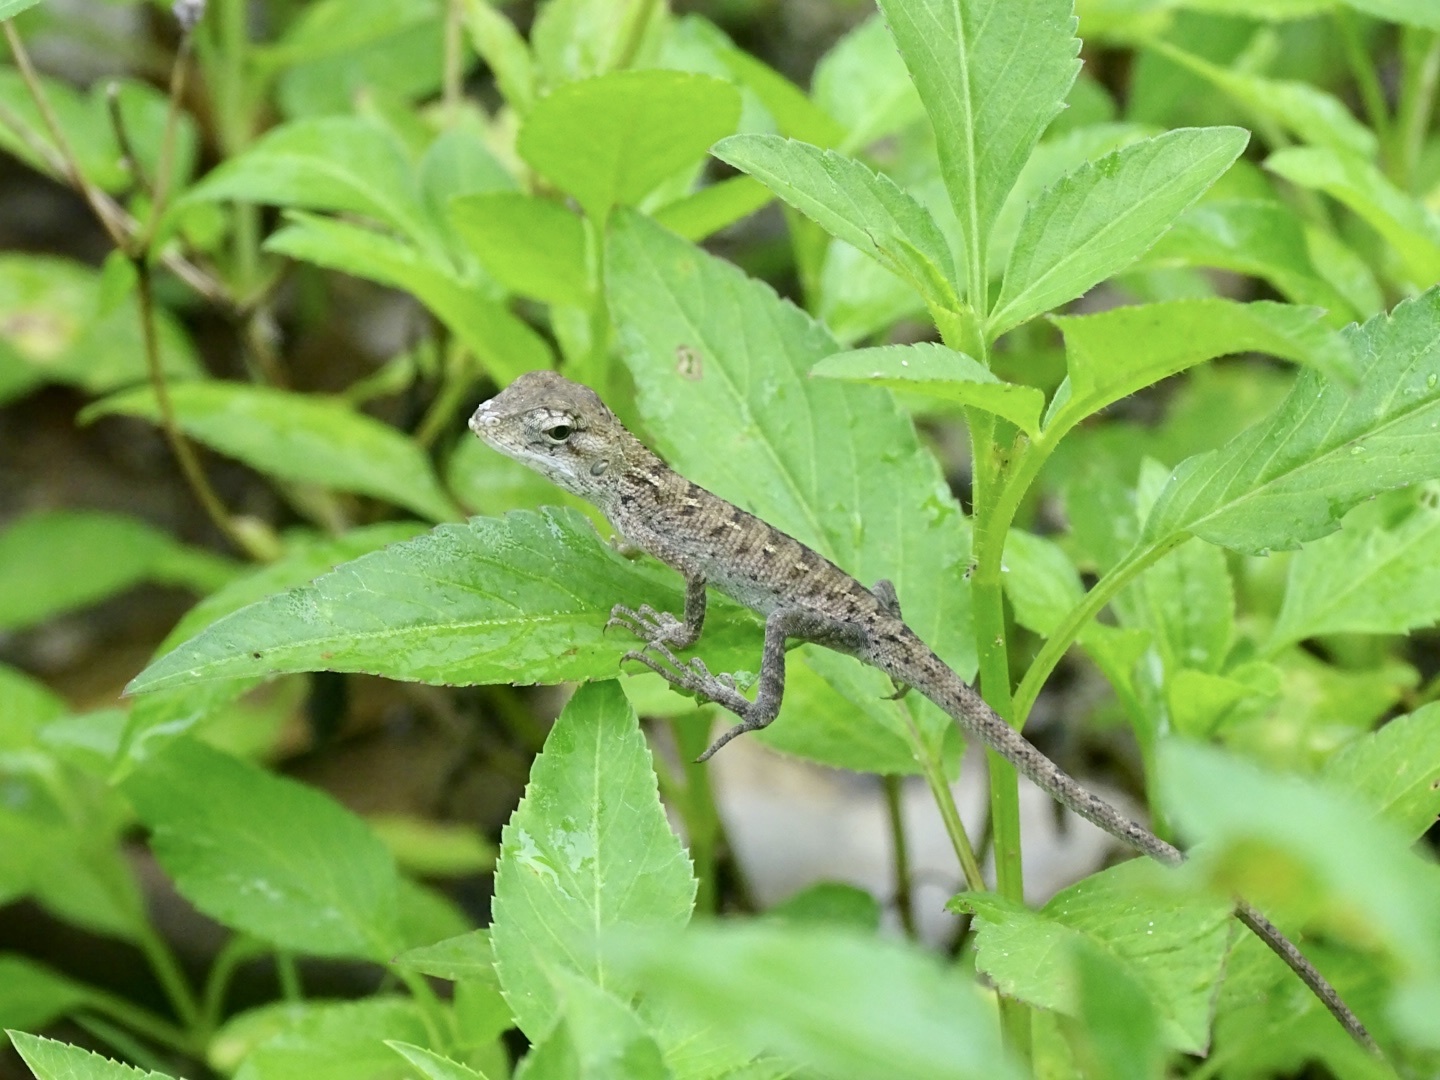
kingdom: Animalia
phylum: Chordata
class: Squamata
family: Agamidae
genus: Calotes
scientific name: Calotes versicolor
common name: Oriental garden lizard
